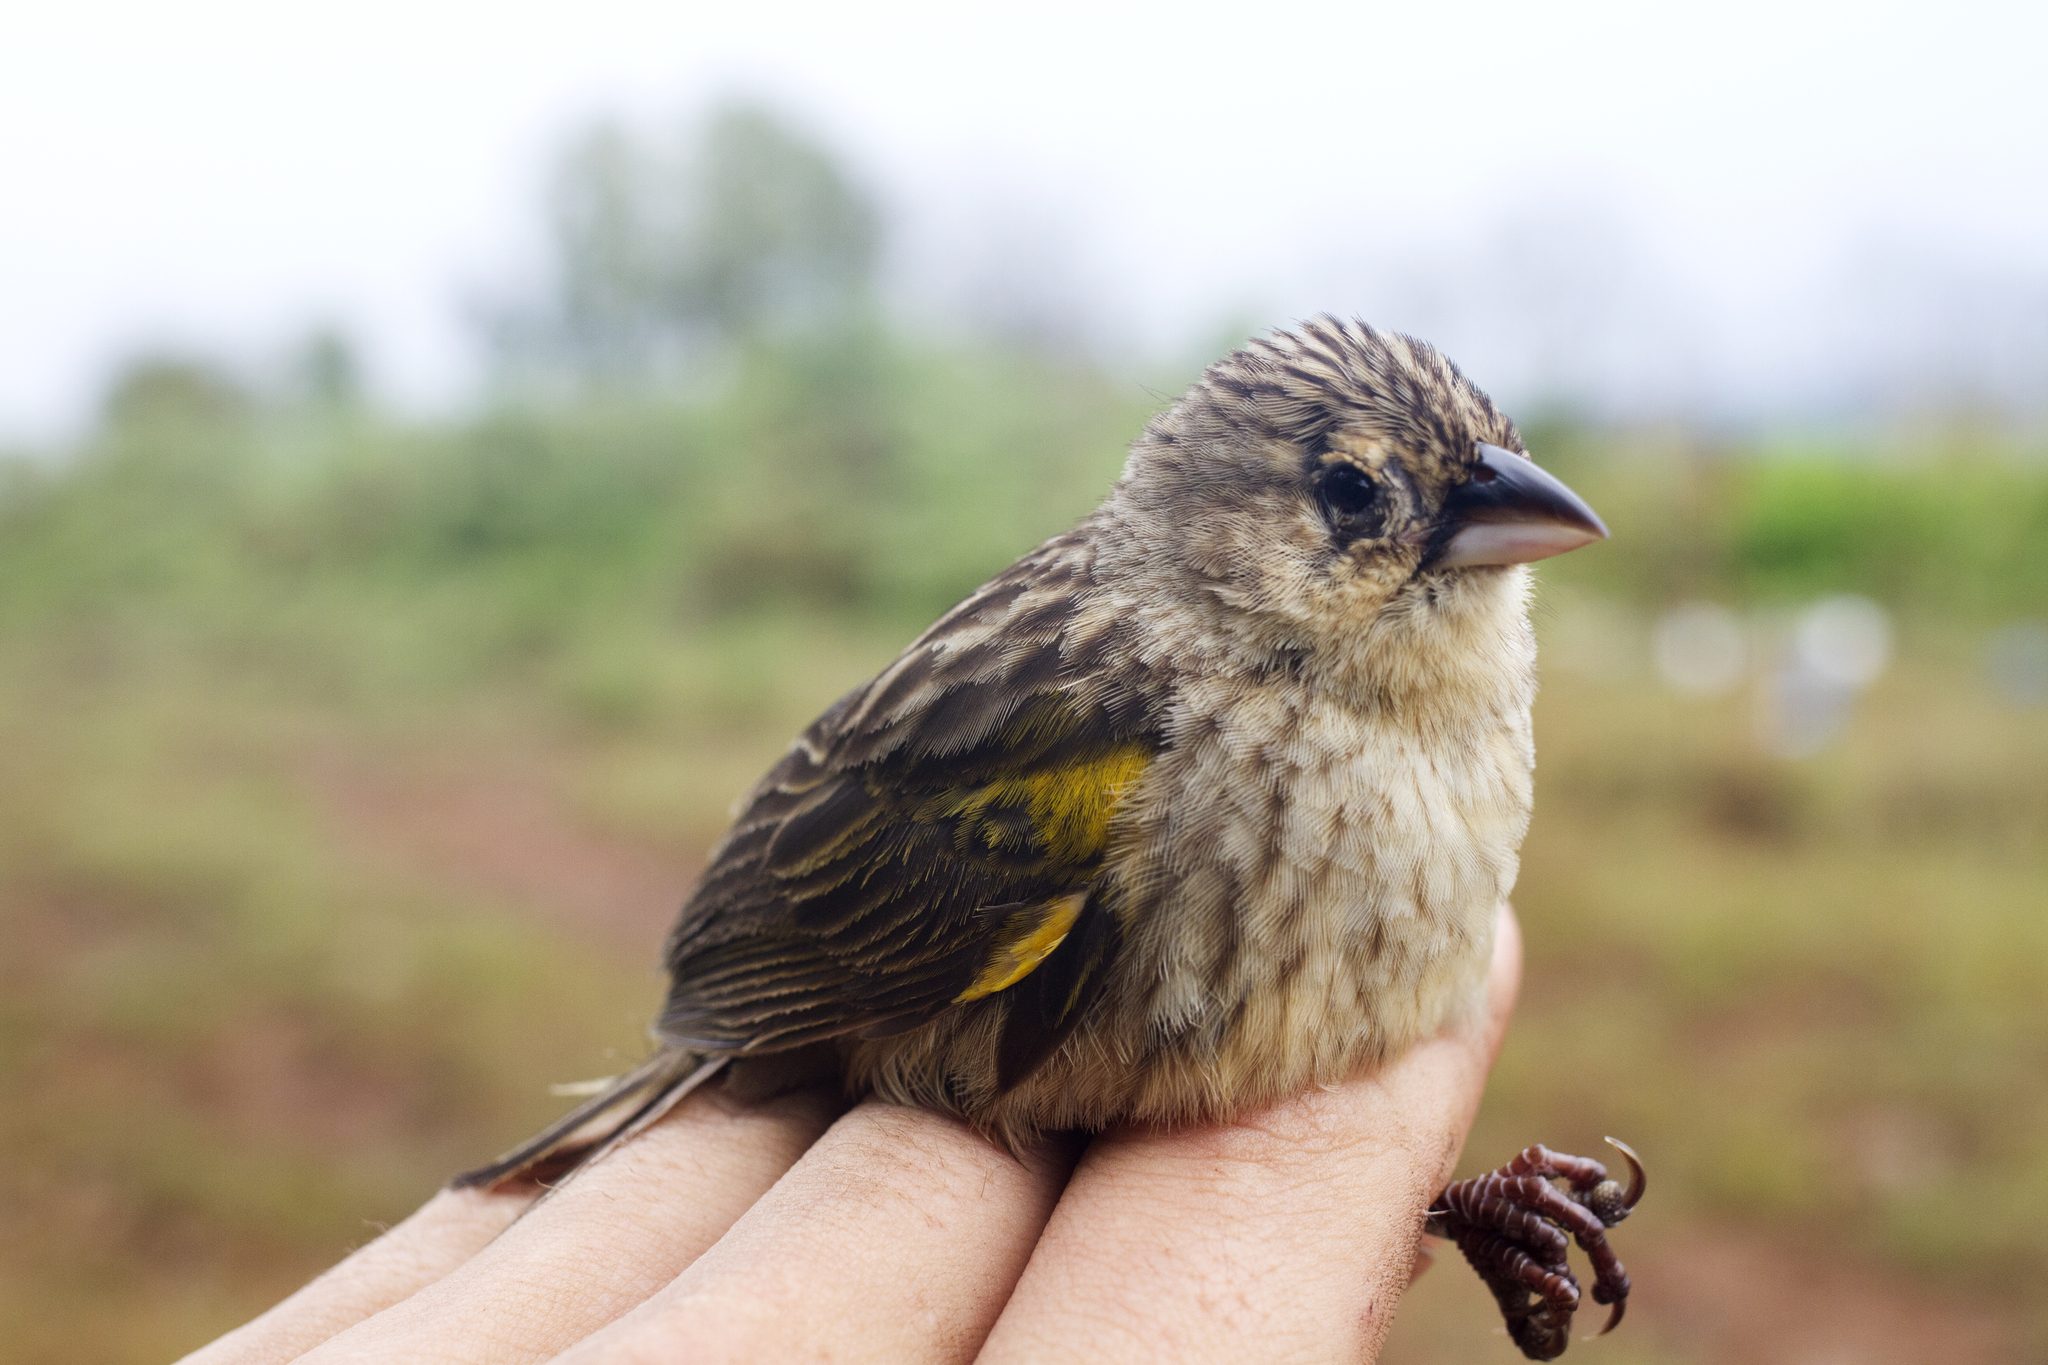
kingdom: Animalia
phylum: Chordata
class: Aves
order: Passeriformes
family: Ploceidae
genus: Euplectes
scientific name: Euplectes capensis
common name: Yellow bishop
